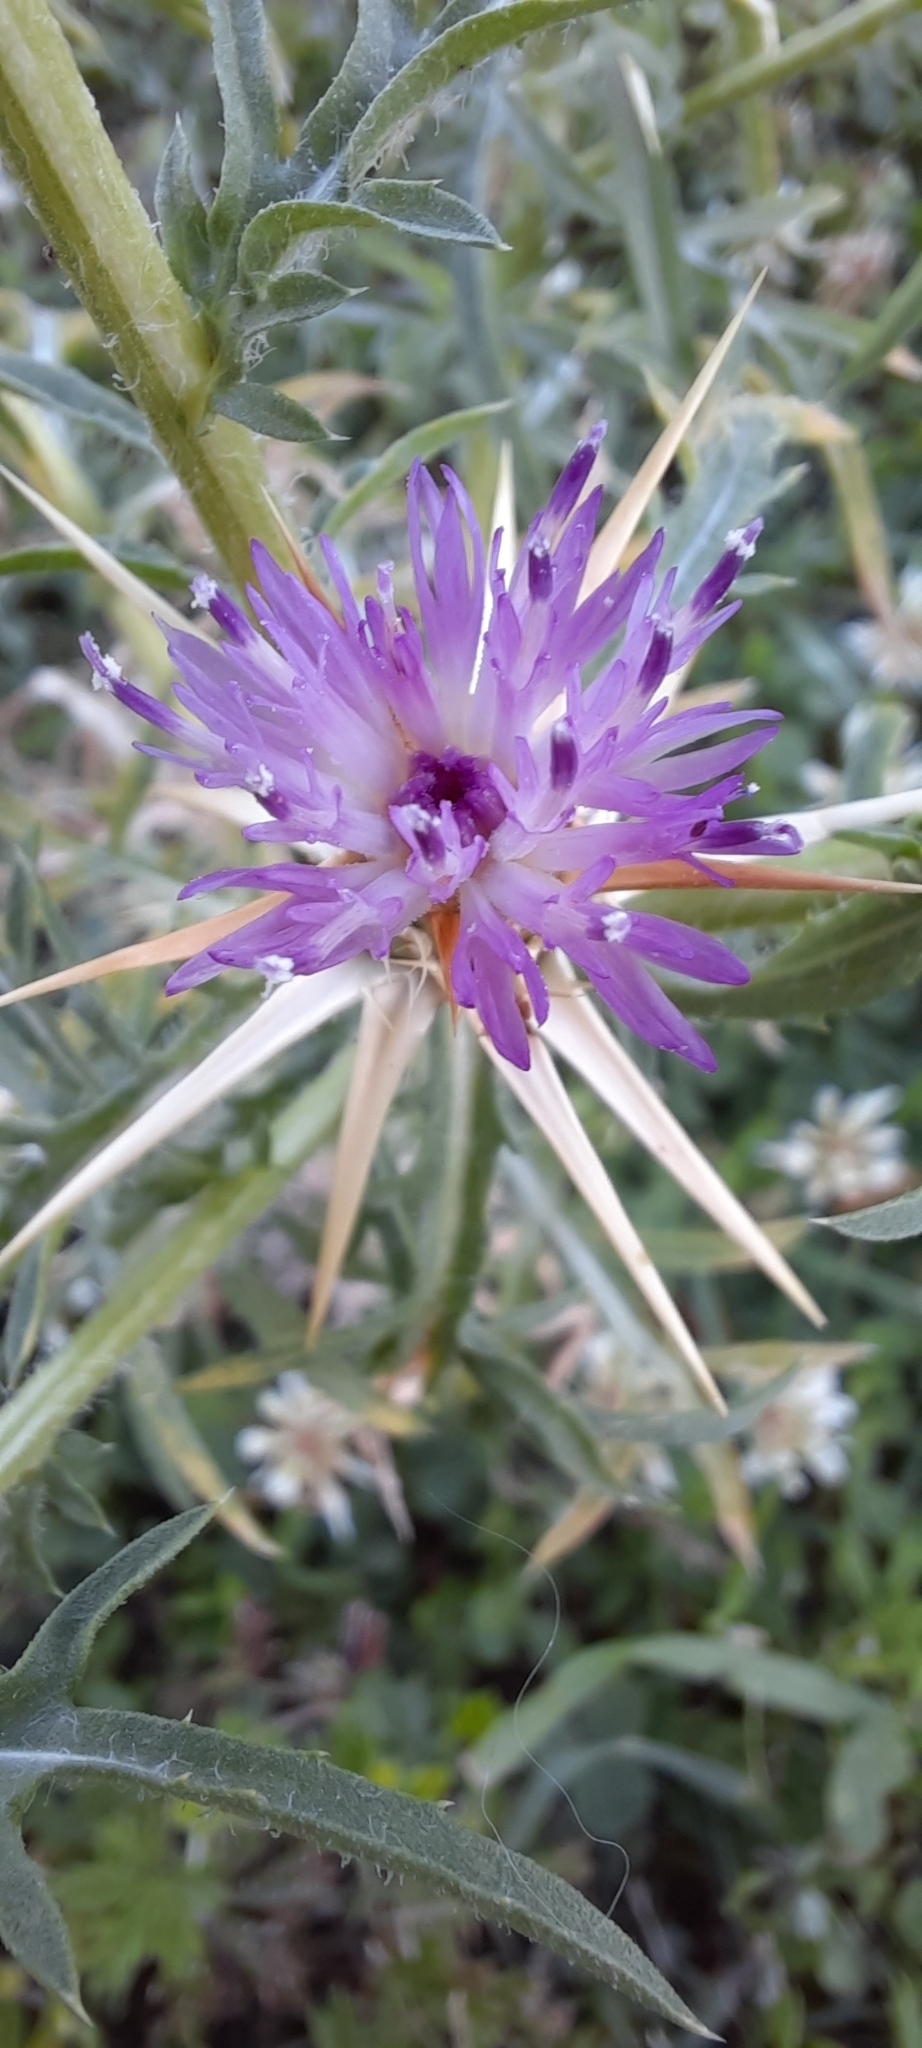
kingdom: Plantae
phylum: Tracheophyta
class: Magnoliopsida
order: Asterales
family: Asteraceae
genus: Centaurea
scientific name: Centaurea calcitrapa
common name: Red star-thistle
